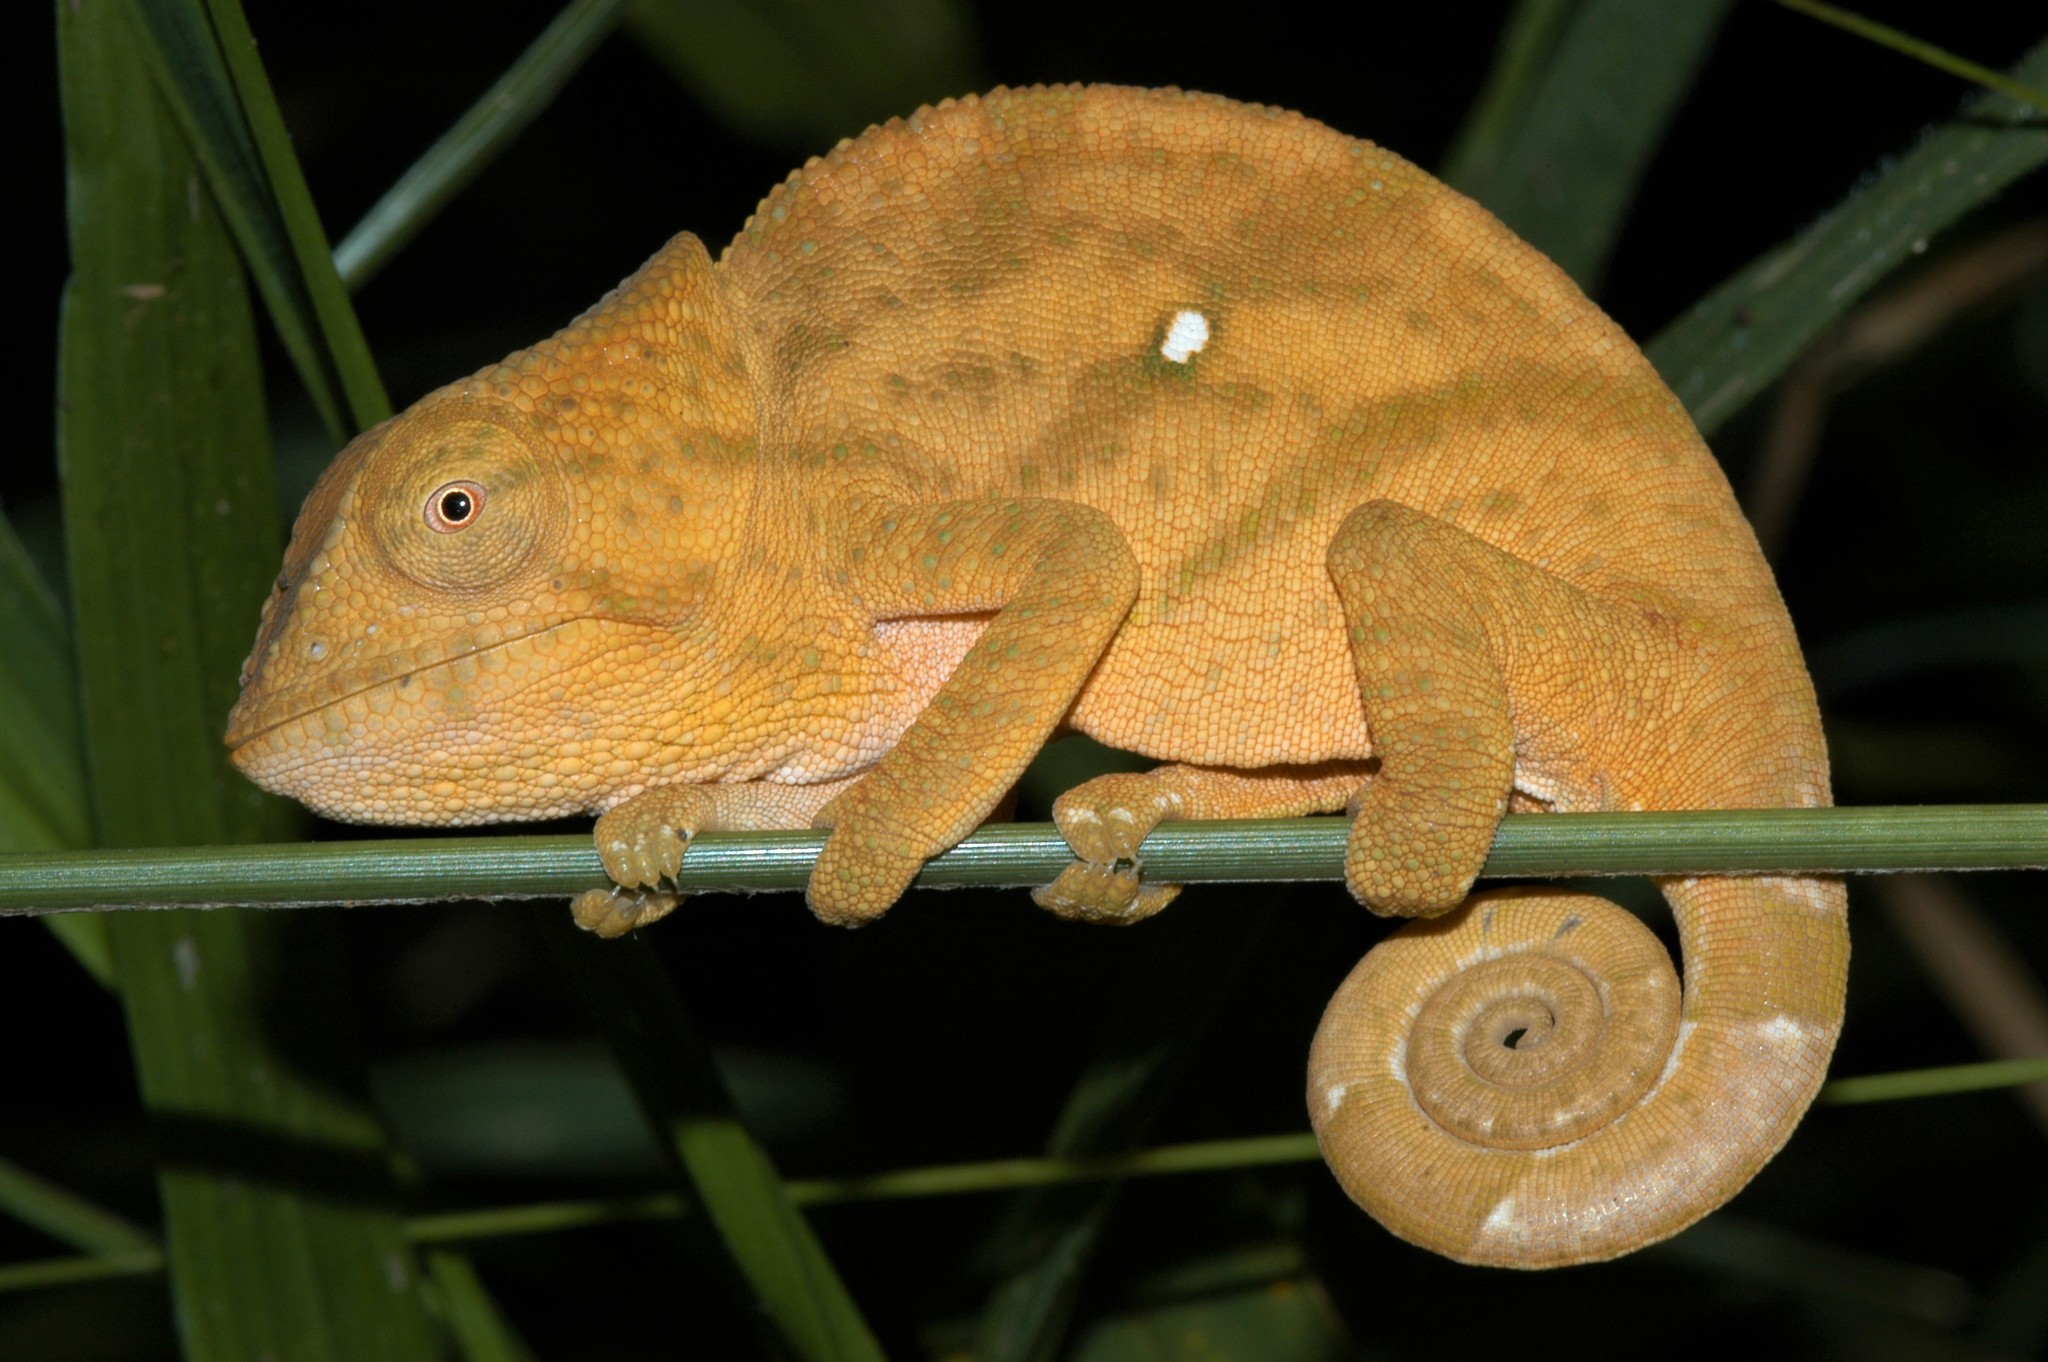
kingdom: Animalia
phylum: Chordata
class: Squamata
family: Chamaeleonidae
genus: Calumma
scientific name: Calumma ambreense
